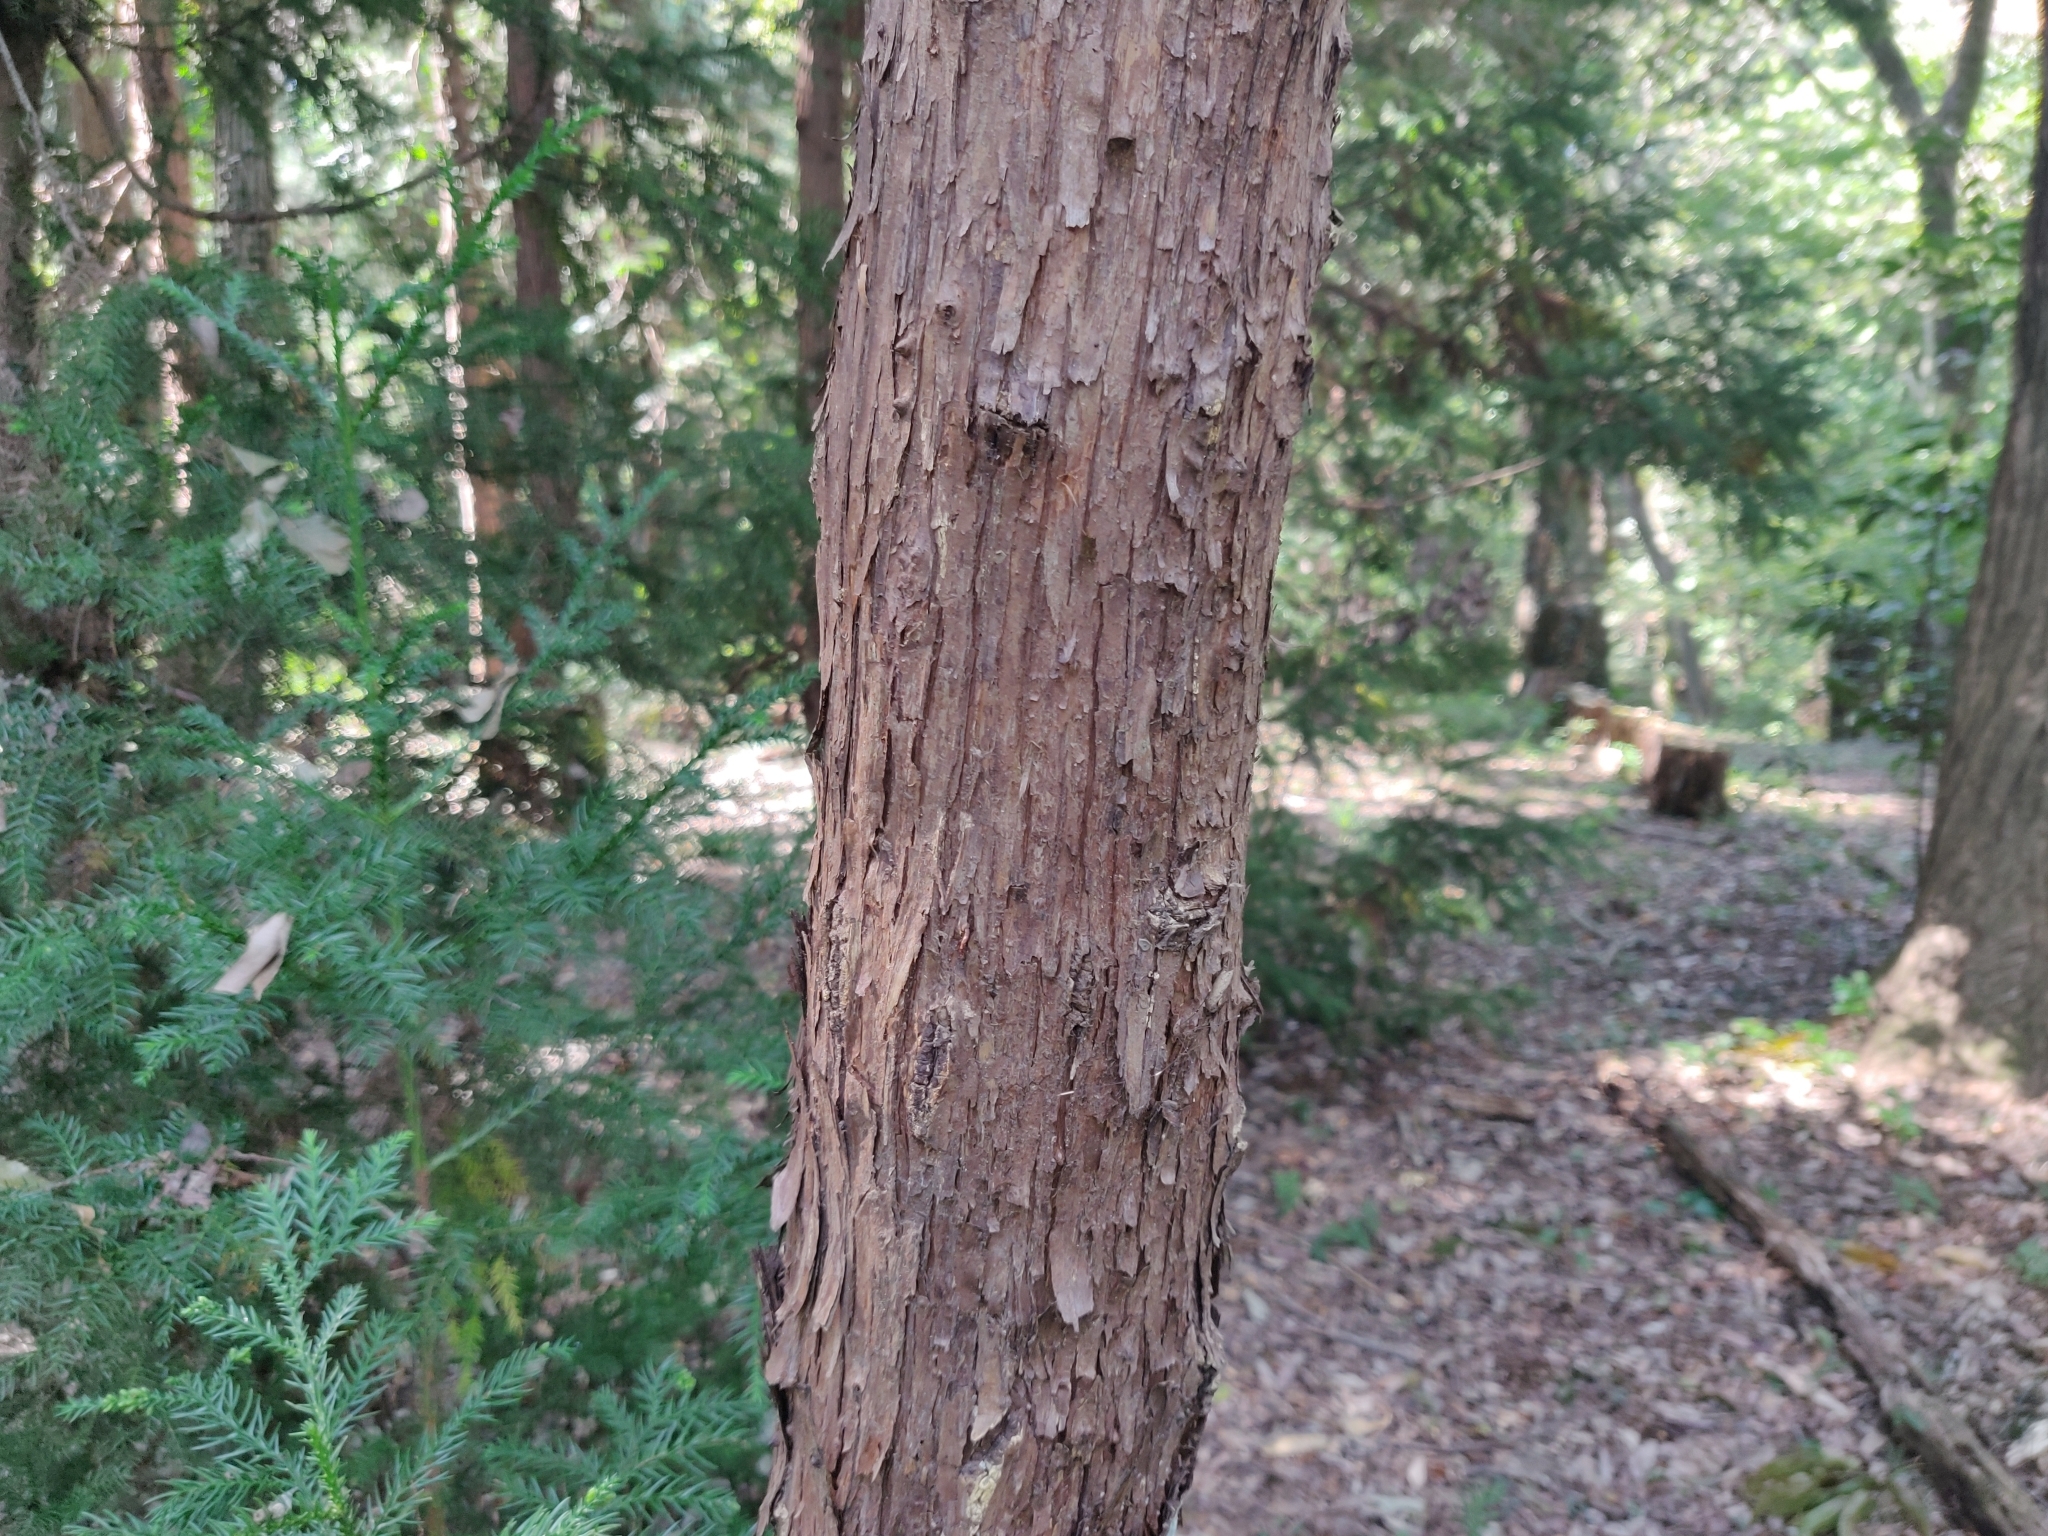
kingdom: Plantae
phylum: Tracheophyta
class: Pinopsida
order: Pinales
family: Cupressaceae
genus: Cryptomeria
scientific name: Cryptomeria japonica
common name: Japanese cedar
